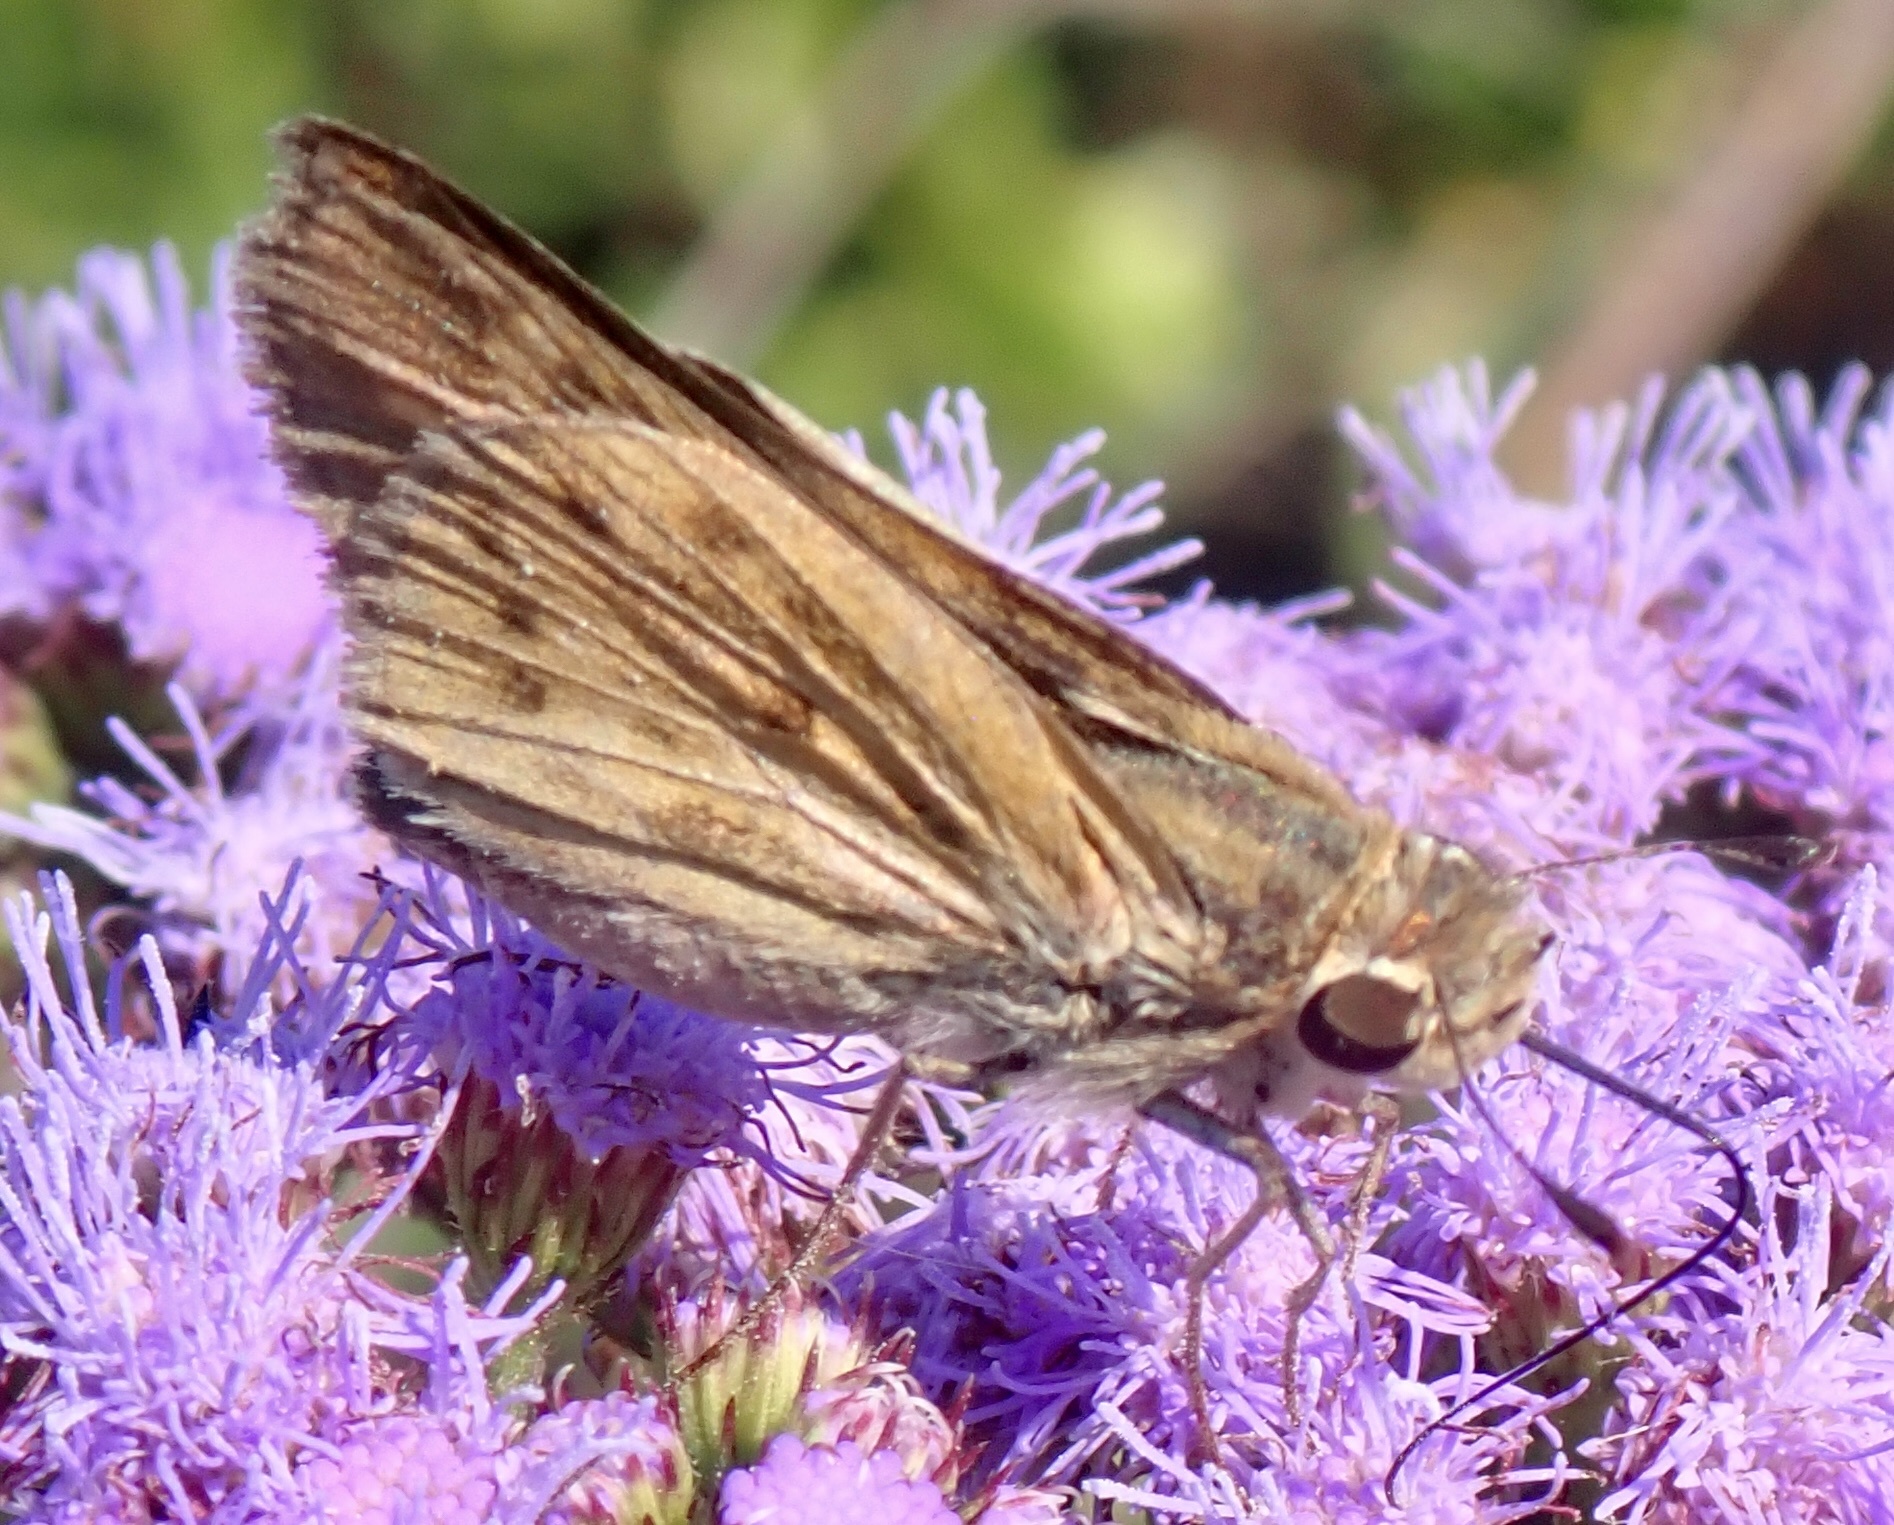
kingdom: Animalia
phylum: Arthropoda
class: Insecta
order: Lepidoptera
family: Hesperiidae
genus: Hylephila
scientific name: Hylephila phyleus
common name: Fiery skipper
